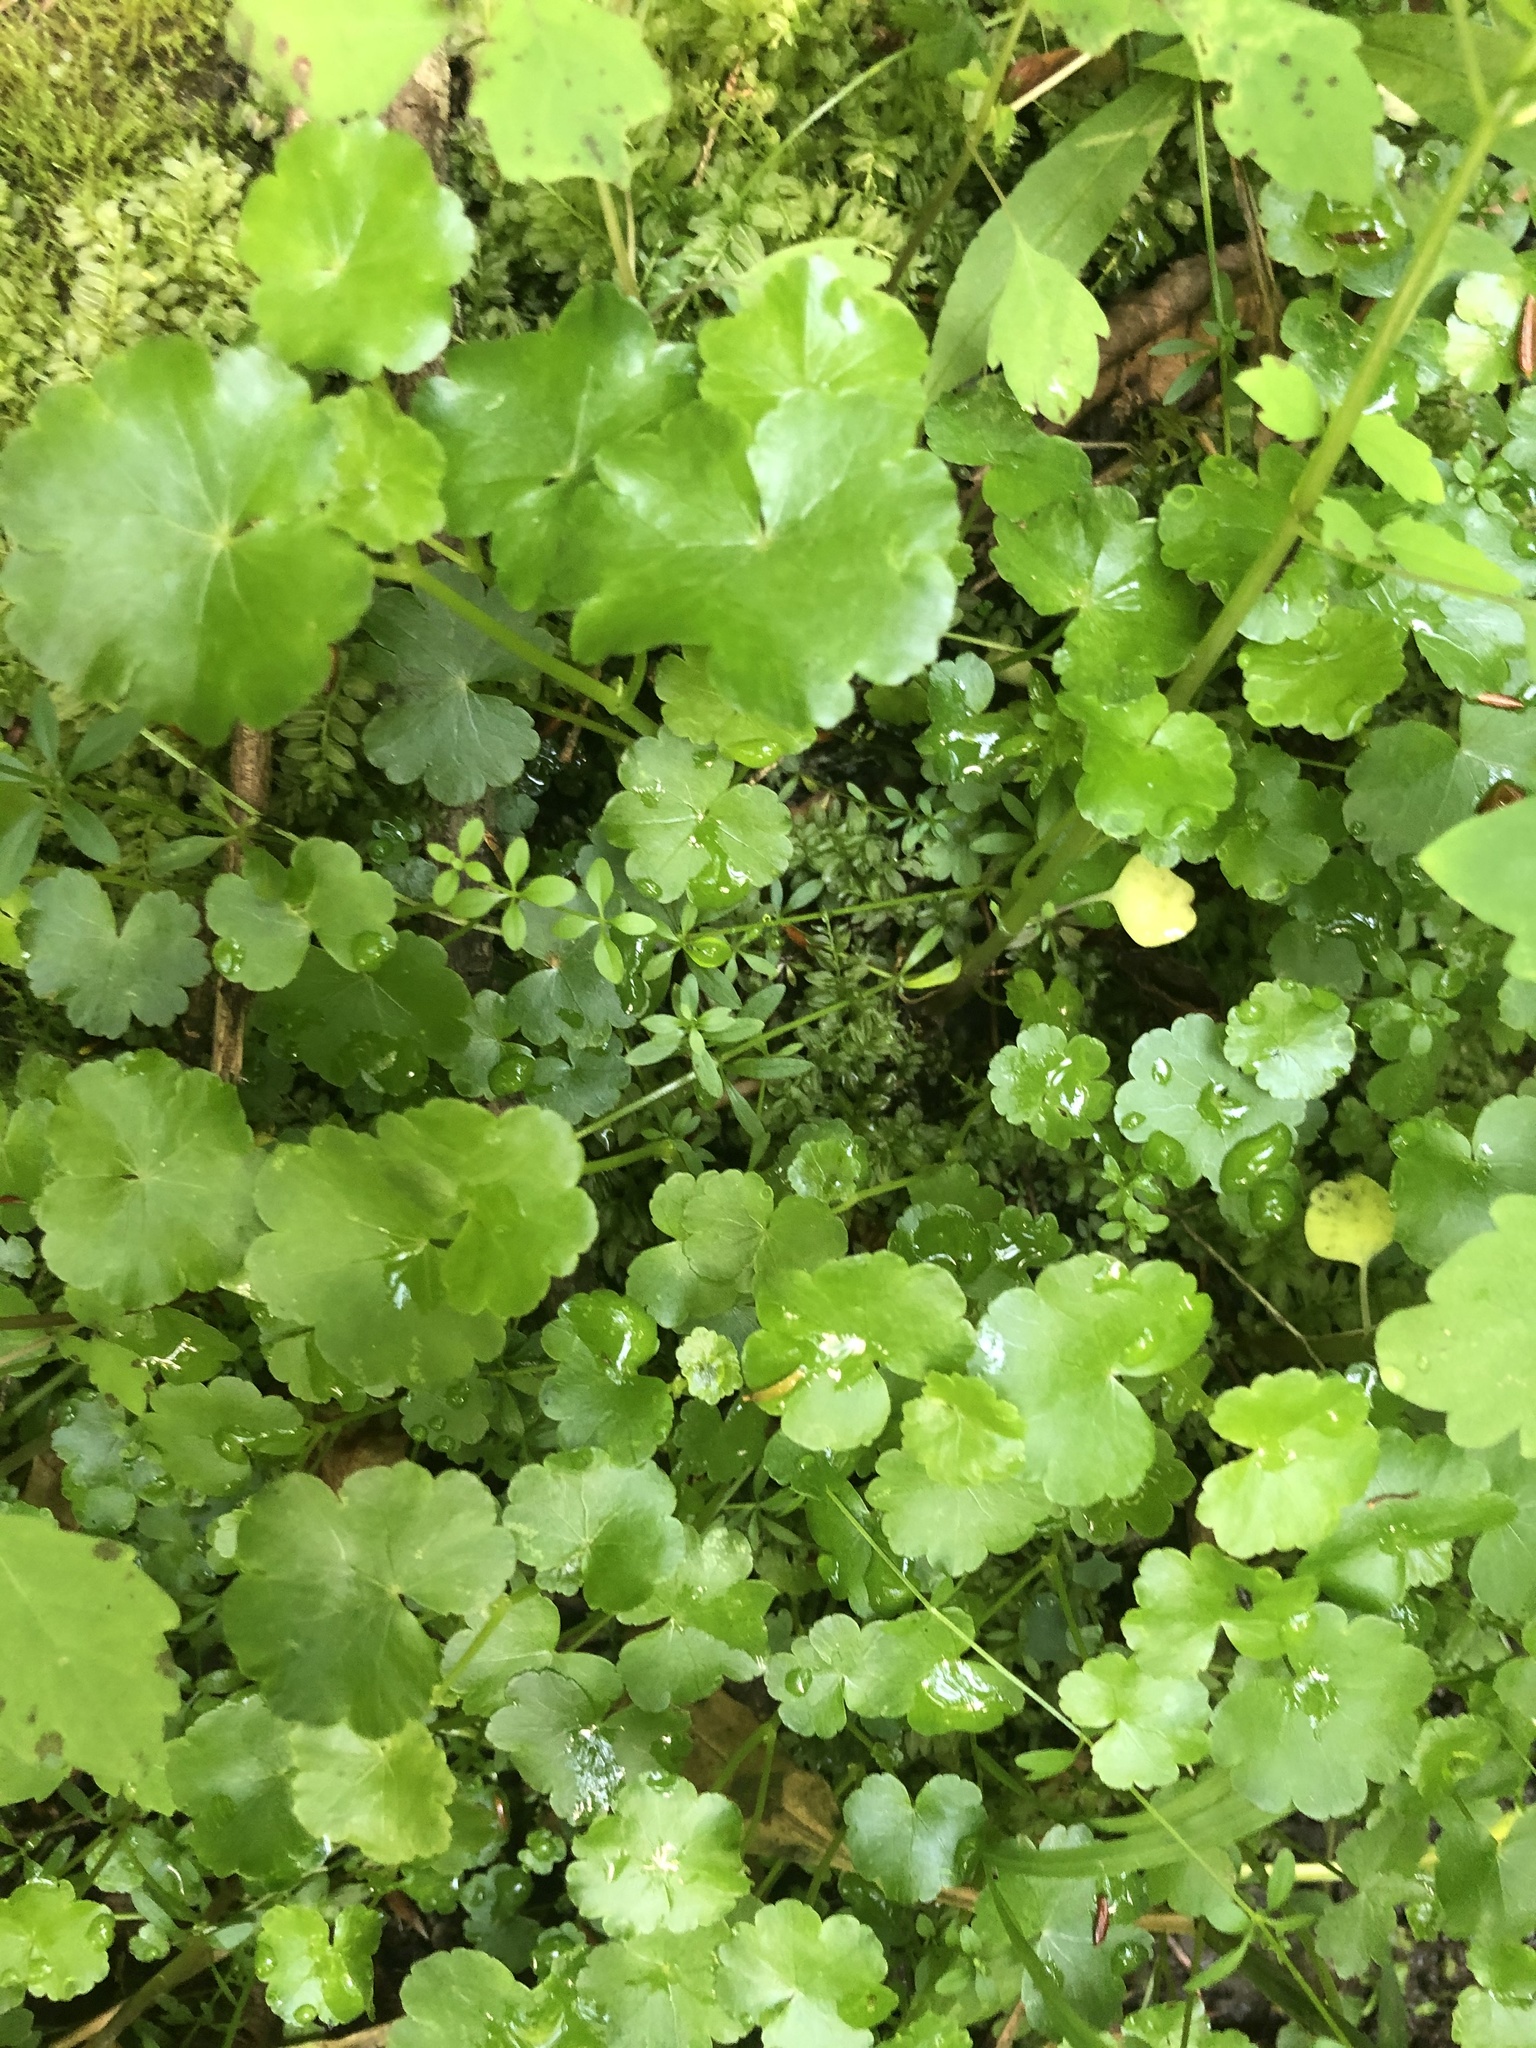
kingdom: Plantae
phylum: Tracheophyta
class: Magnoliopsida
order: Apiales
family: Araliaceae
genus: Hydrocotyle
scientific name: Hydrocotyle americana
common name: American water-pennywort
